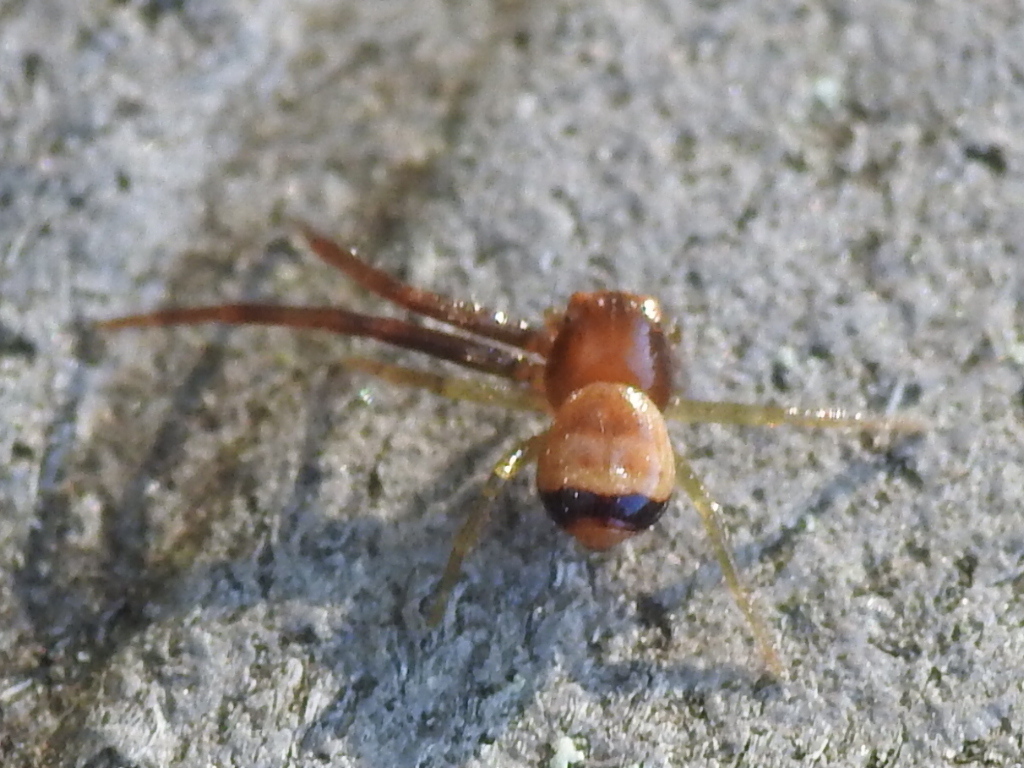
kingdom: Animalia
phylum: Arthropoda
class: Arachnida
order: Araneae
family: Thomisidae
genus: Synema
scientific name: Synema parvulum
